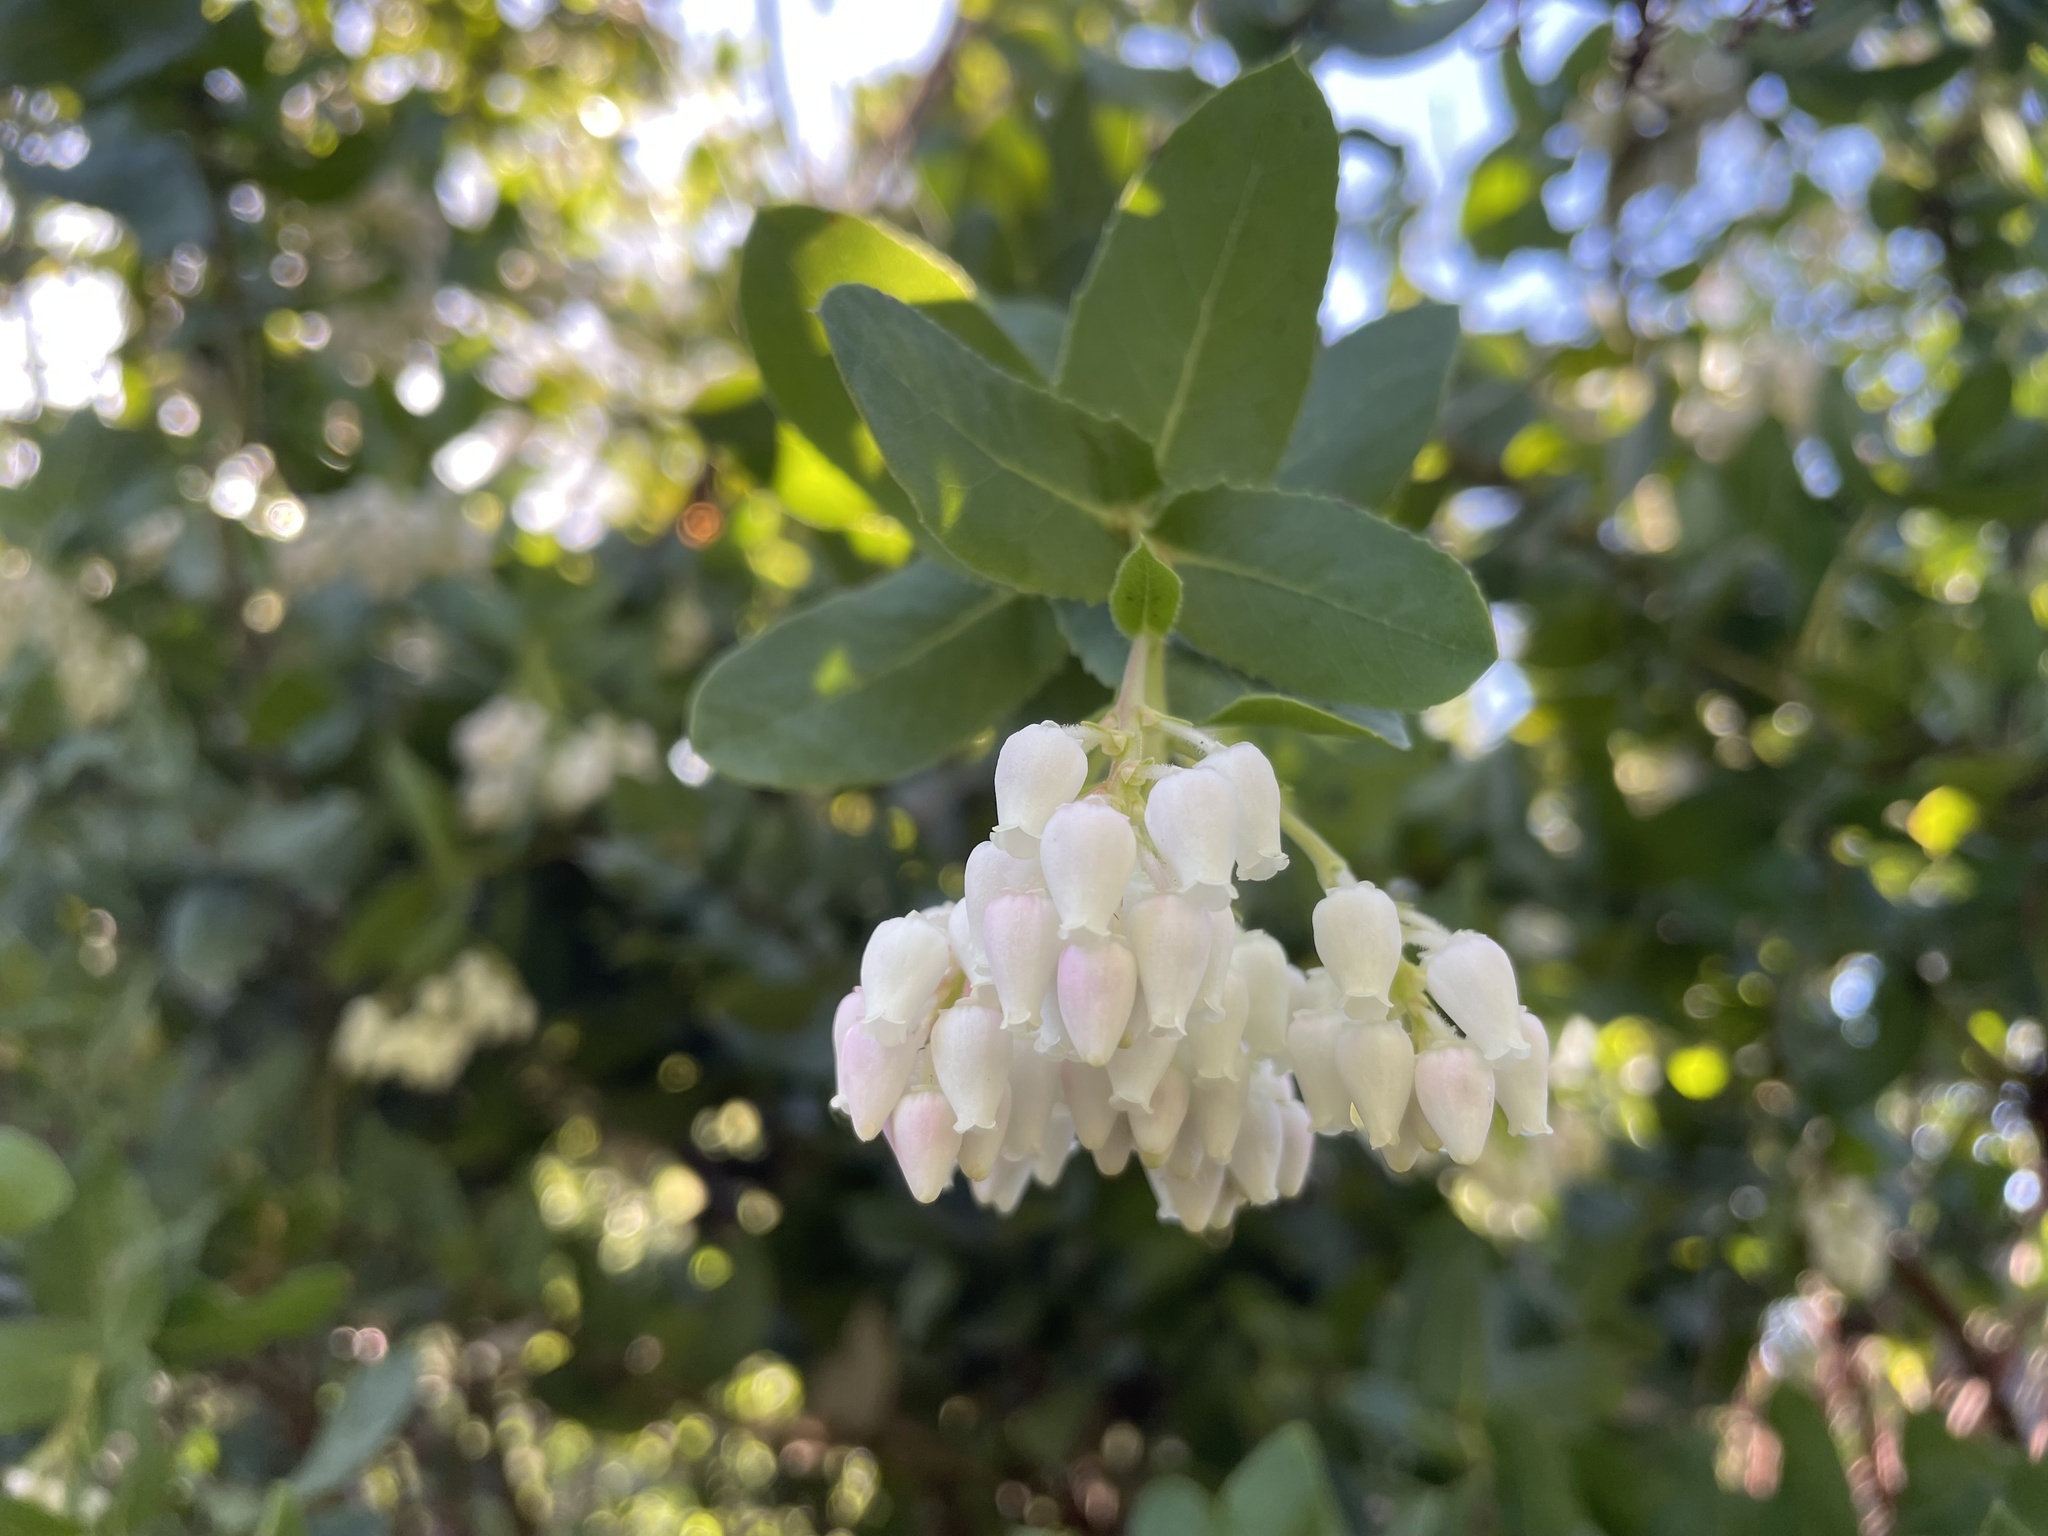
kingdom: Plantae
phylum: Tracheophyta
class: Magnoliopsida
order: Ericales
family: Ericaceae
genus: Arctostaphylos
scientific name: Arctostaphylos andersonii
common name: Santa cruz manzanita
